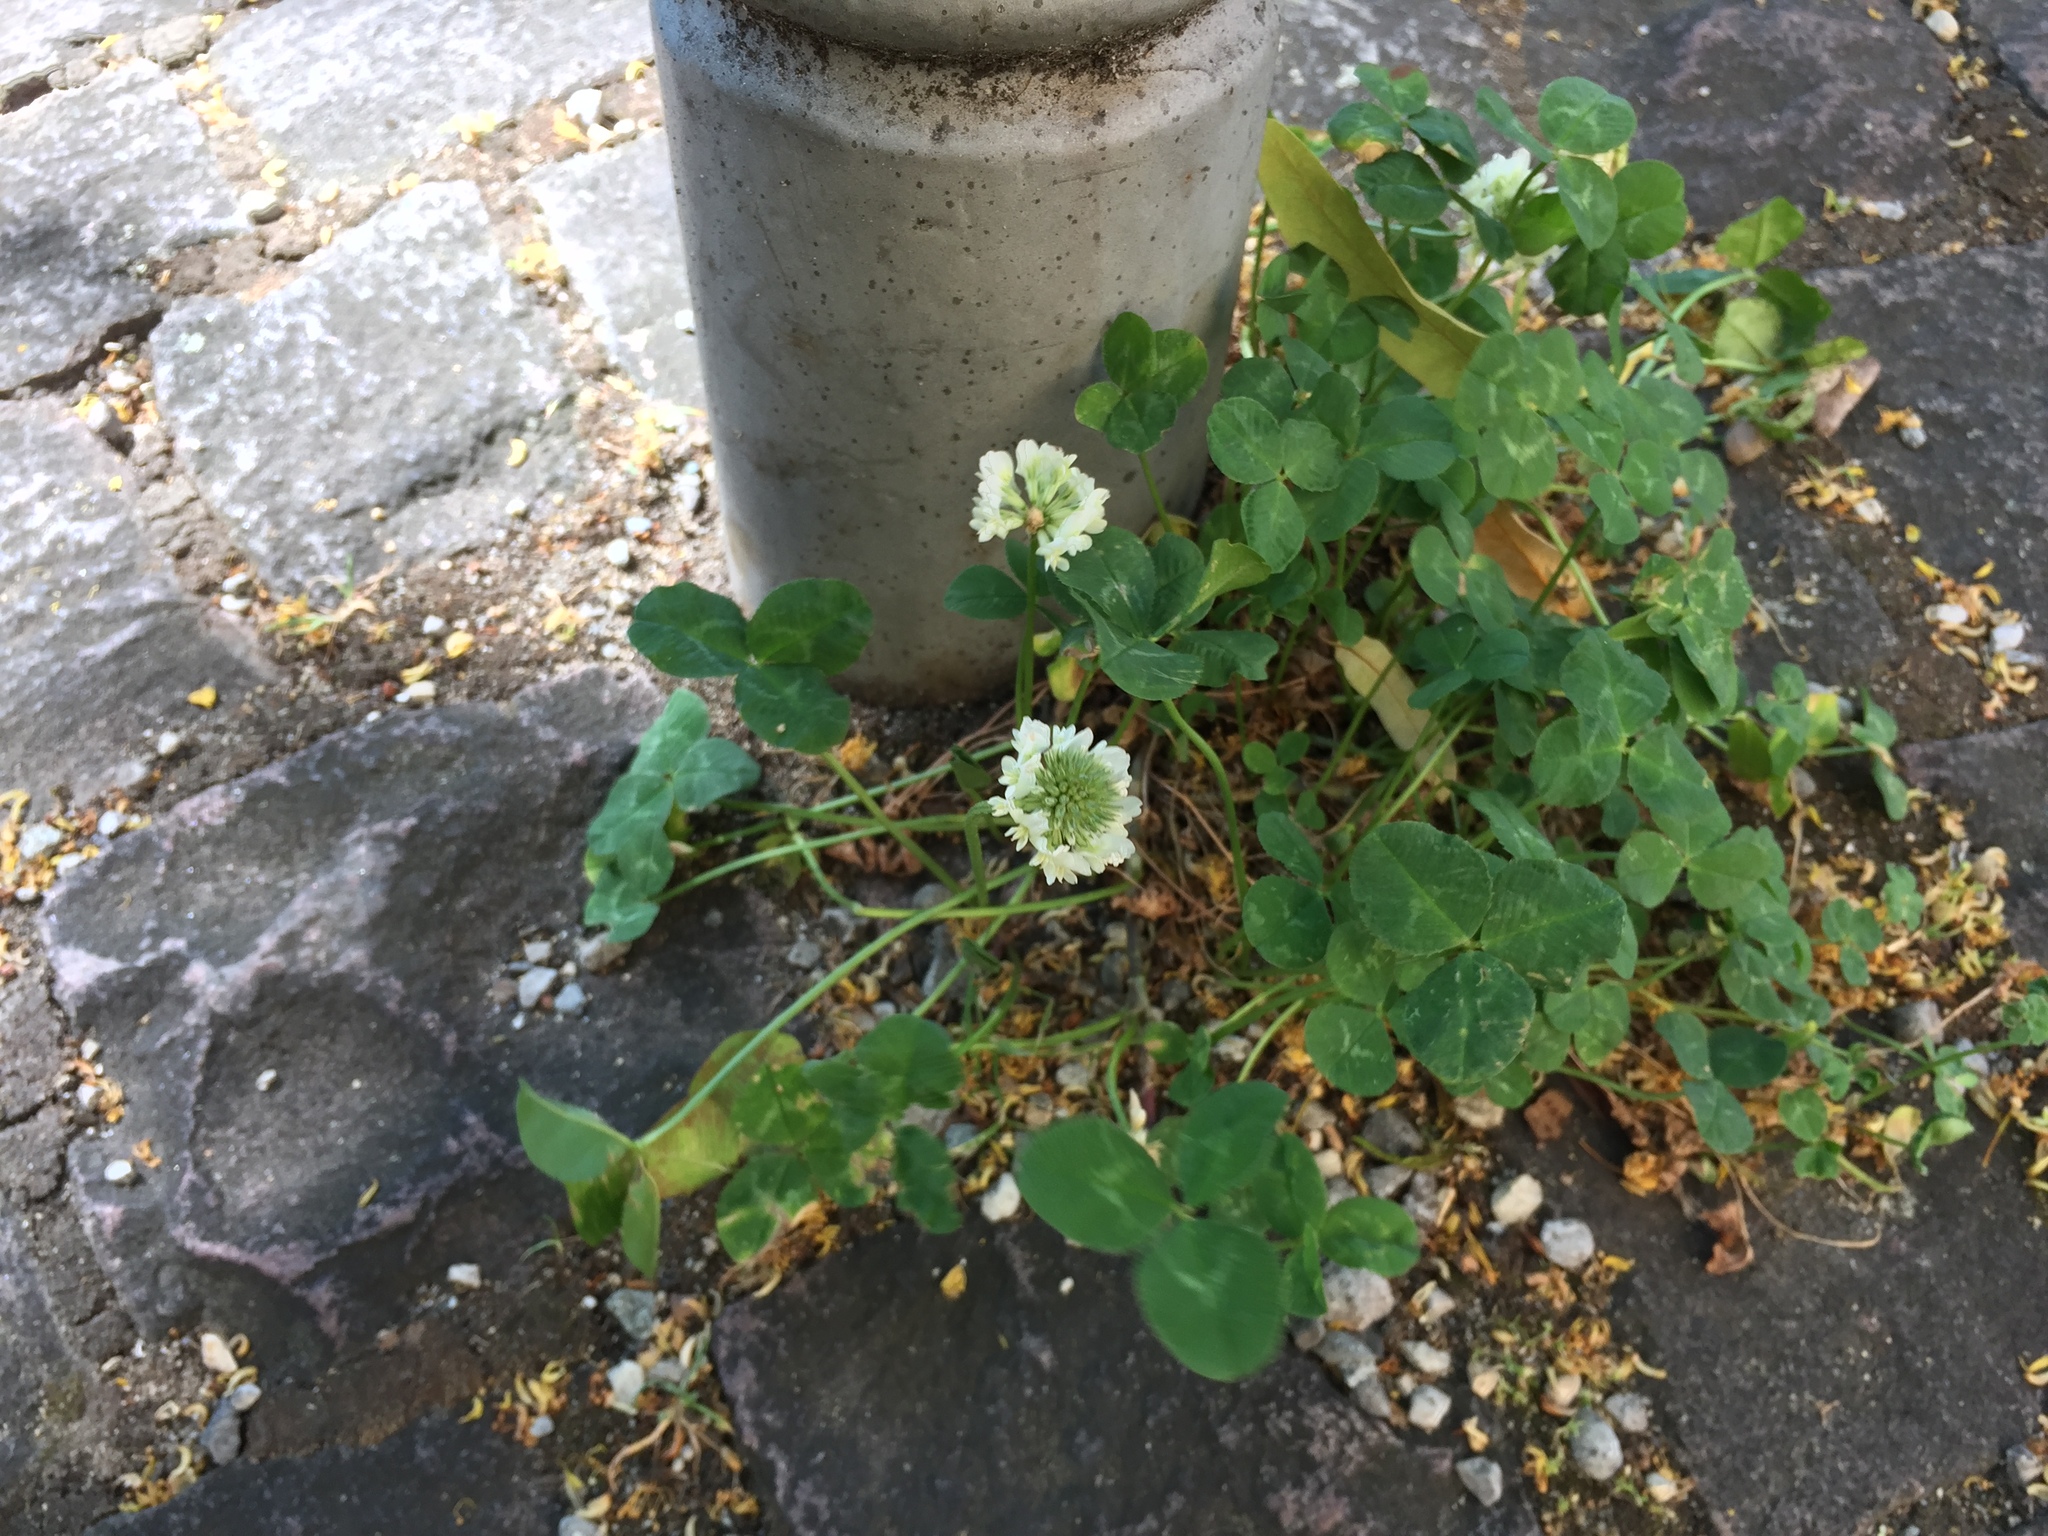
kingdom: Plantae
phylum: Tracheophyta
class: Magnoliopsida
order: Fabales
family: Fabaceae
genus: Trifolium
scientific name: Trifolium repens
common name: White clover
